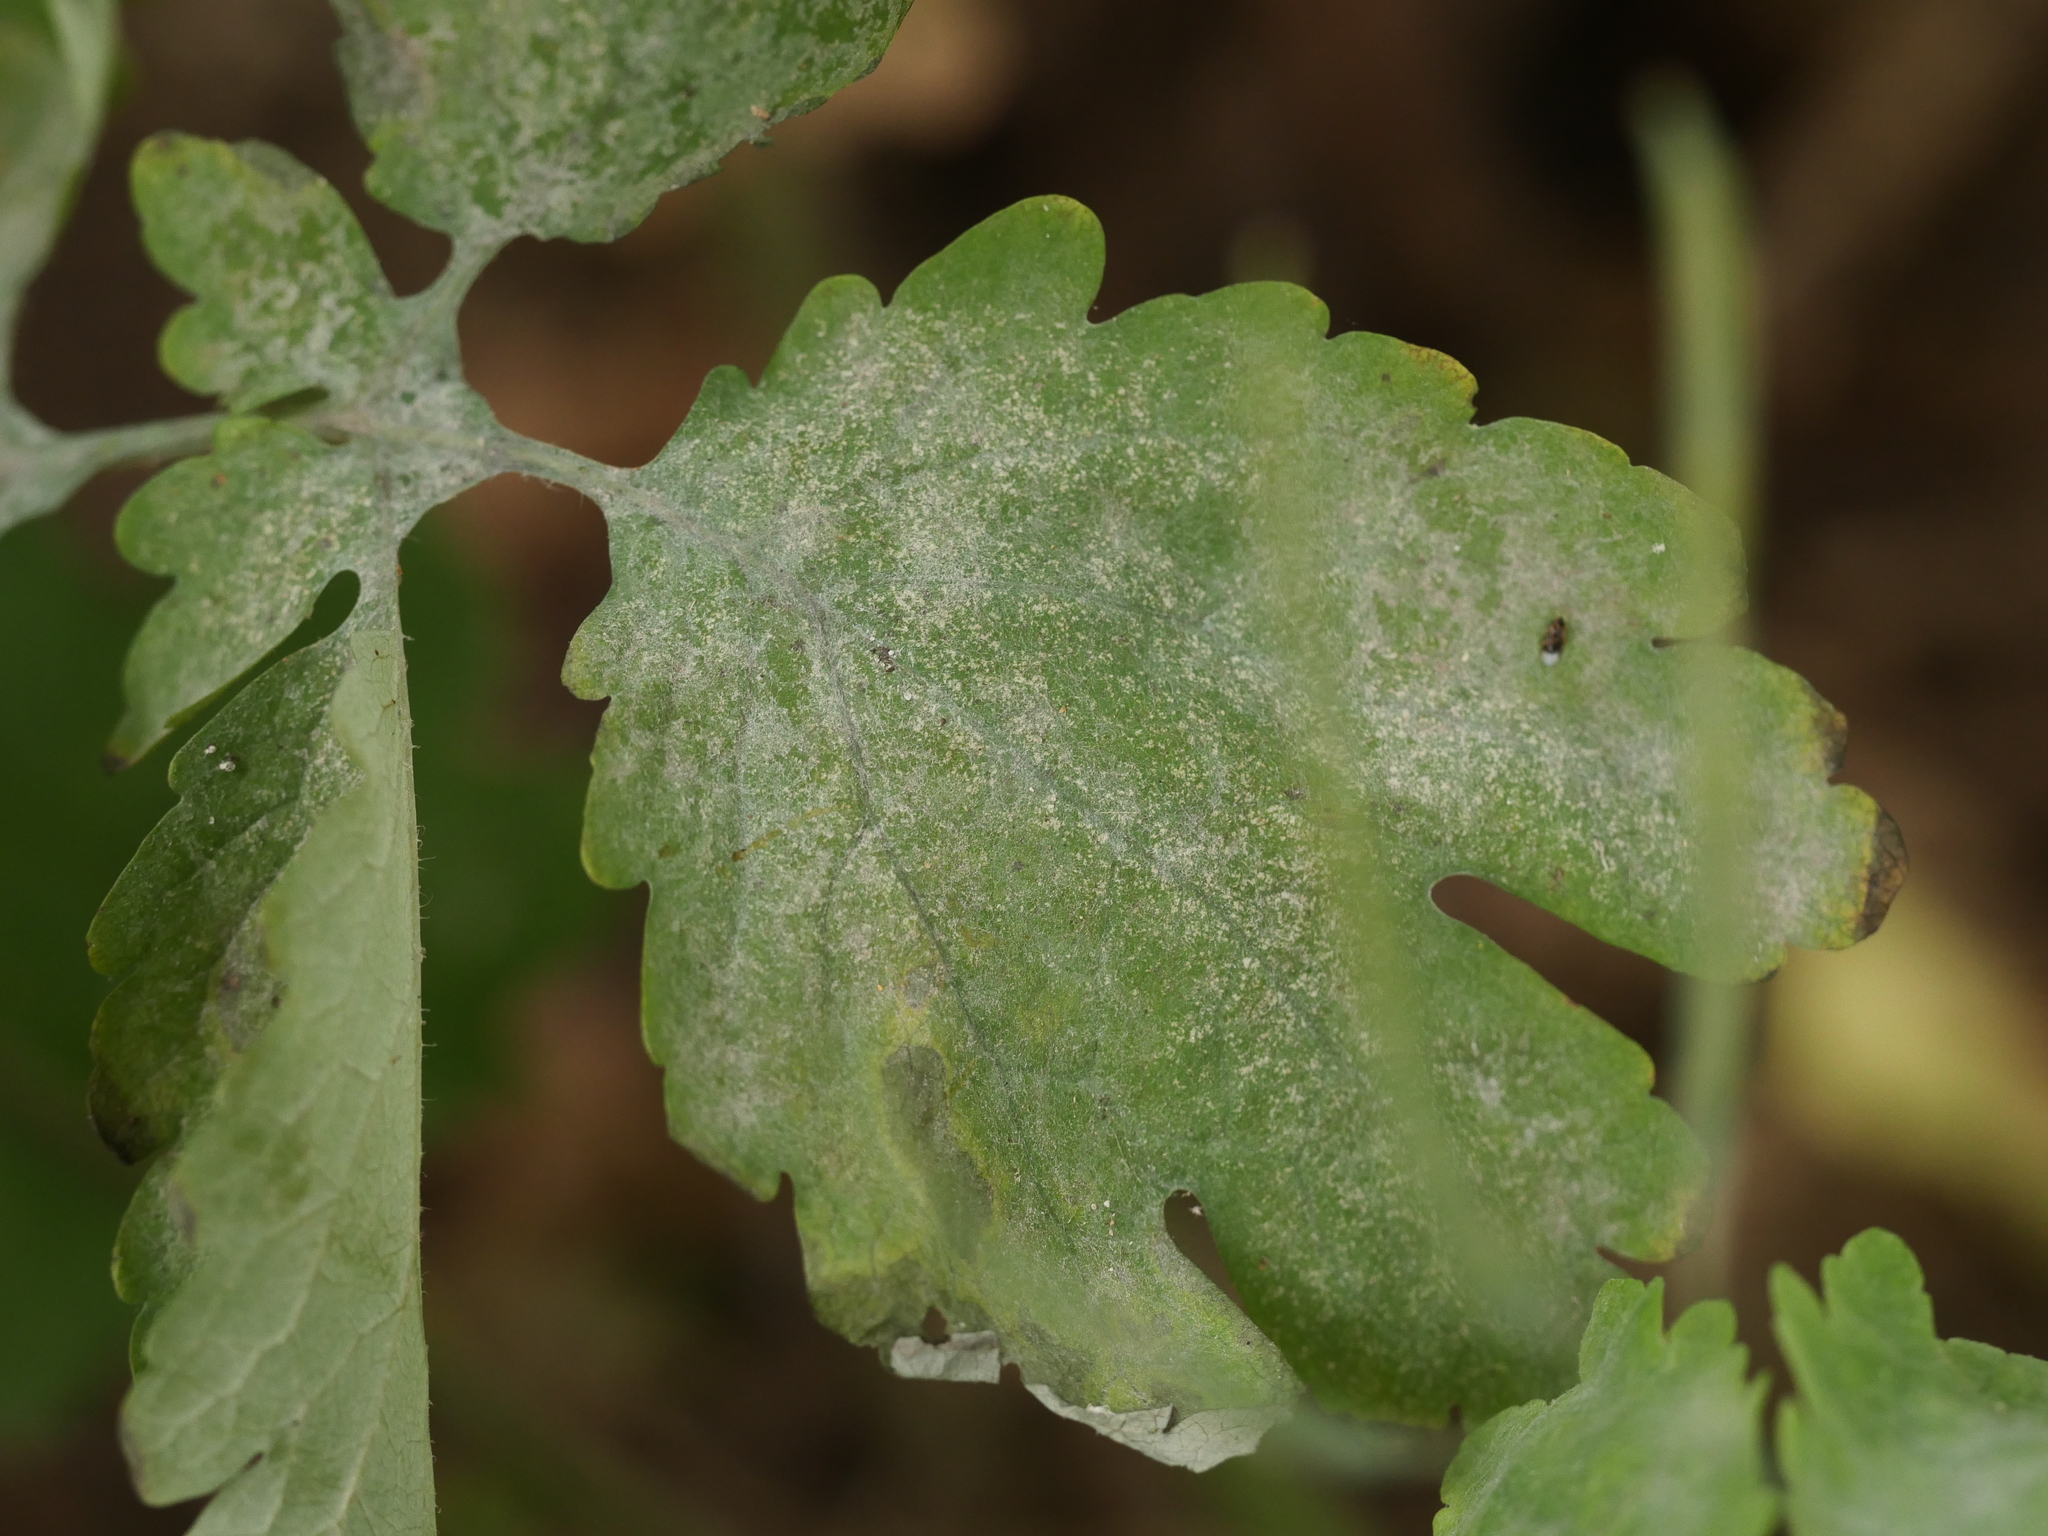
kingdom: Fungi
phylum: Ascomycota
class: Leotiomycetes
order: Helotiales
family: Erysiphaceae
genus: Erysiphe
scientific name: Erysiphe macleayae
